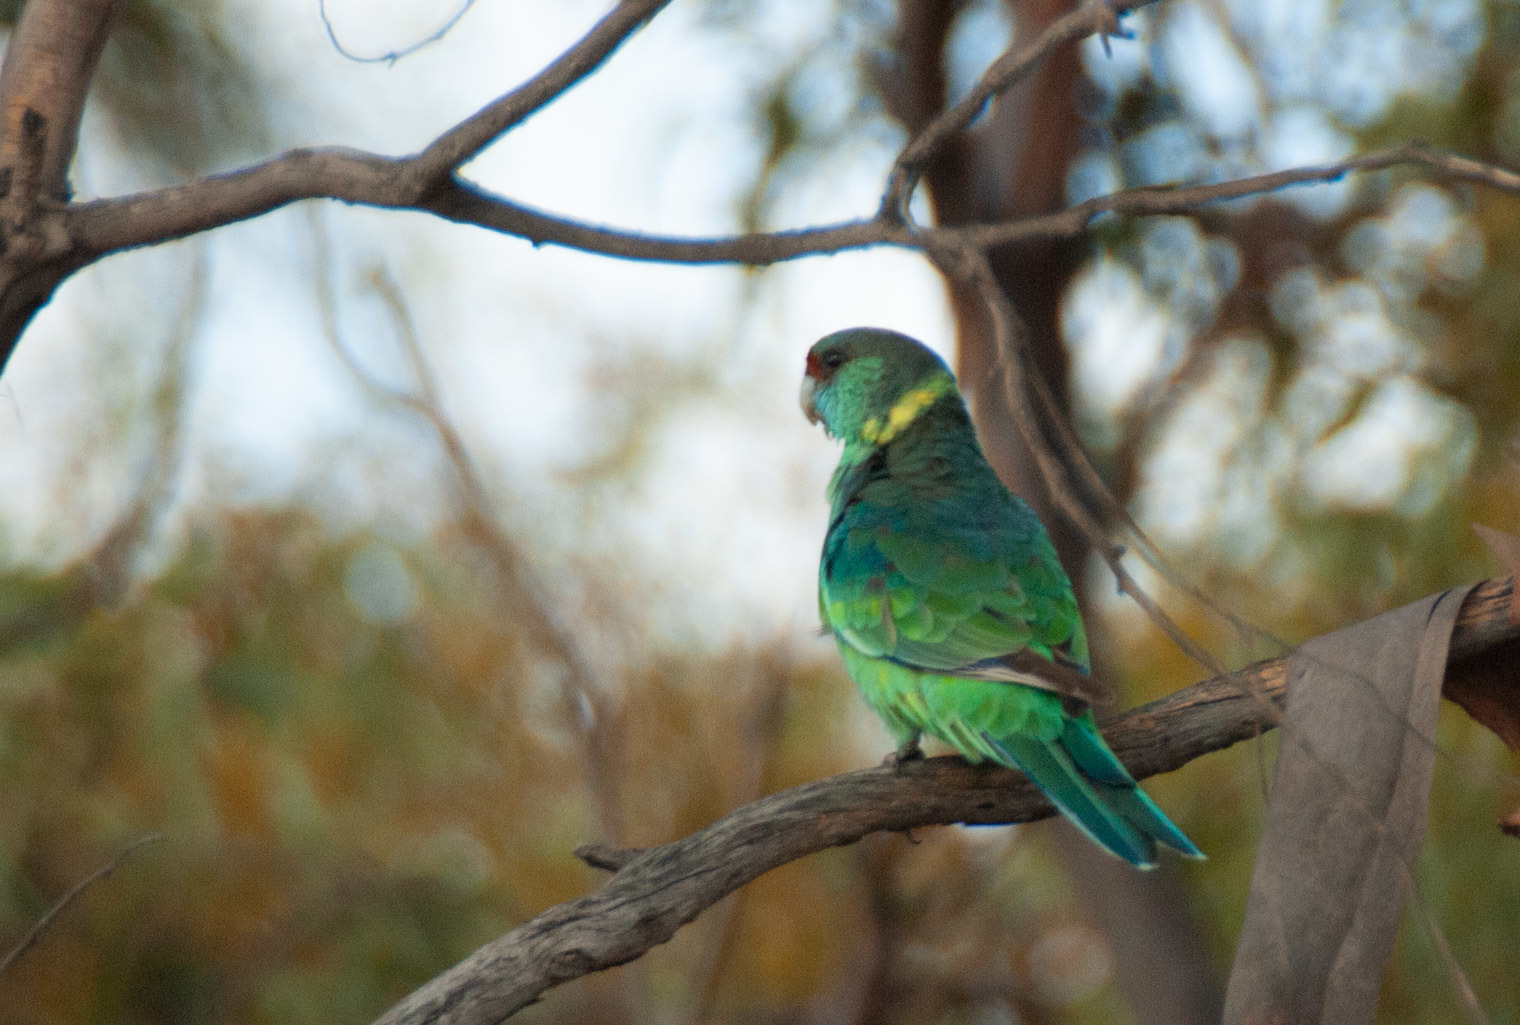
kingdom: Animalia
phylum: Chordata
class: Aves
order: Psittaciformes
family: Psittacidae
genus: Barnardius
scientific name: Barnardius zonarius
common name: Australian ringneck
